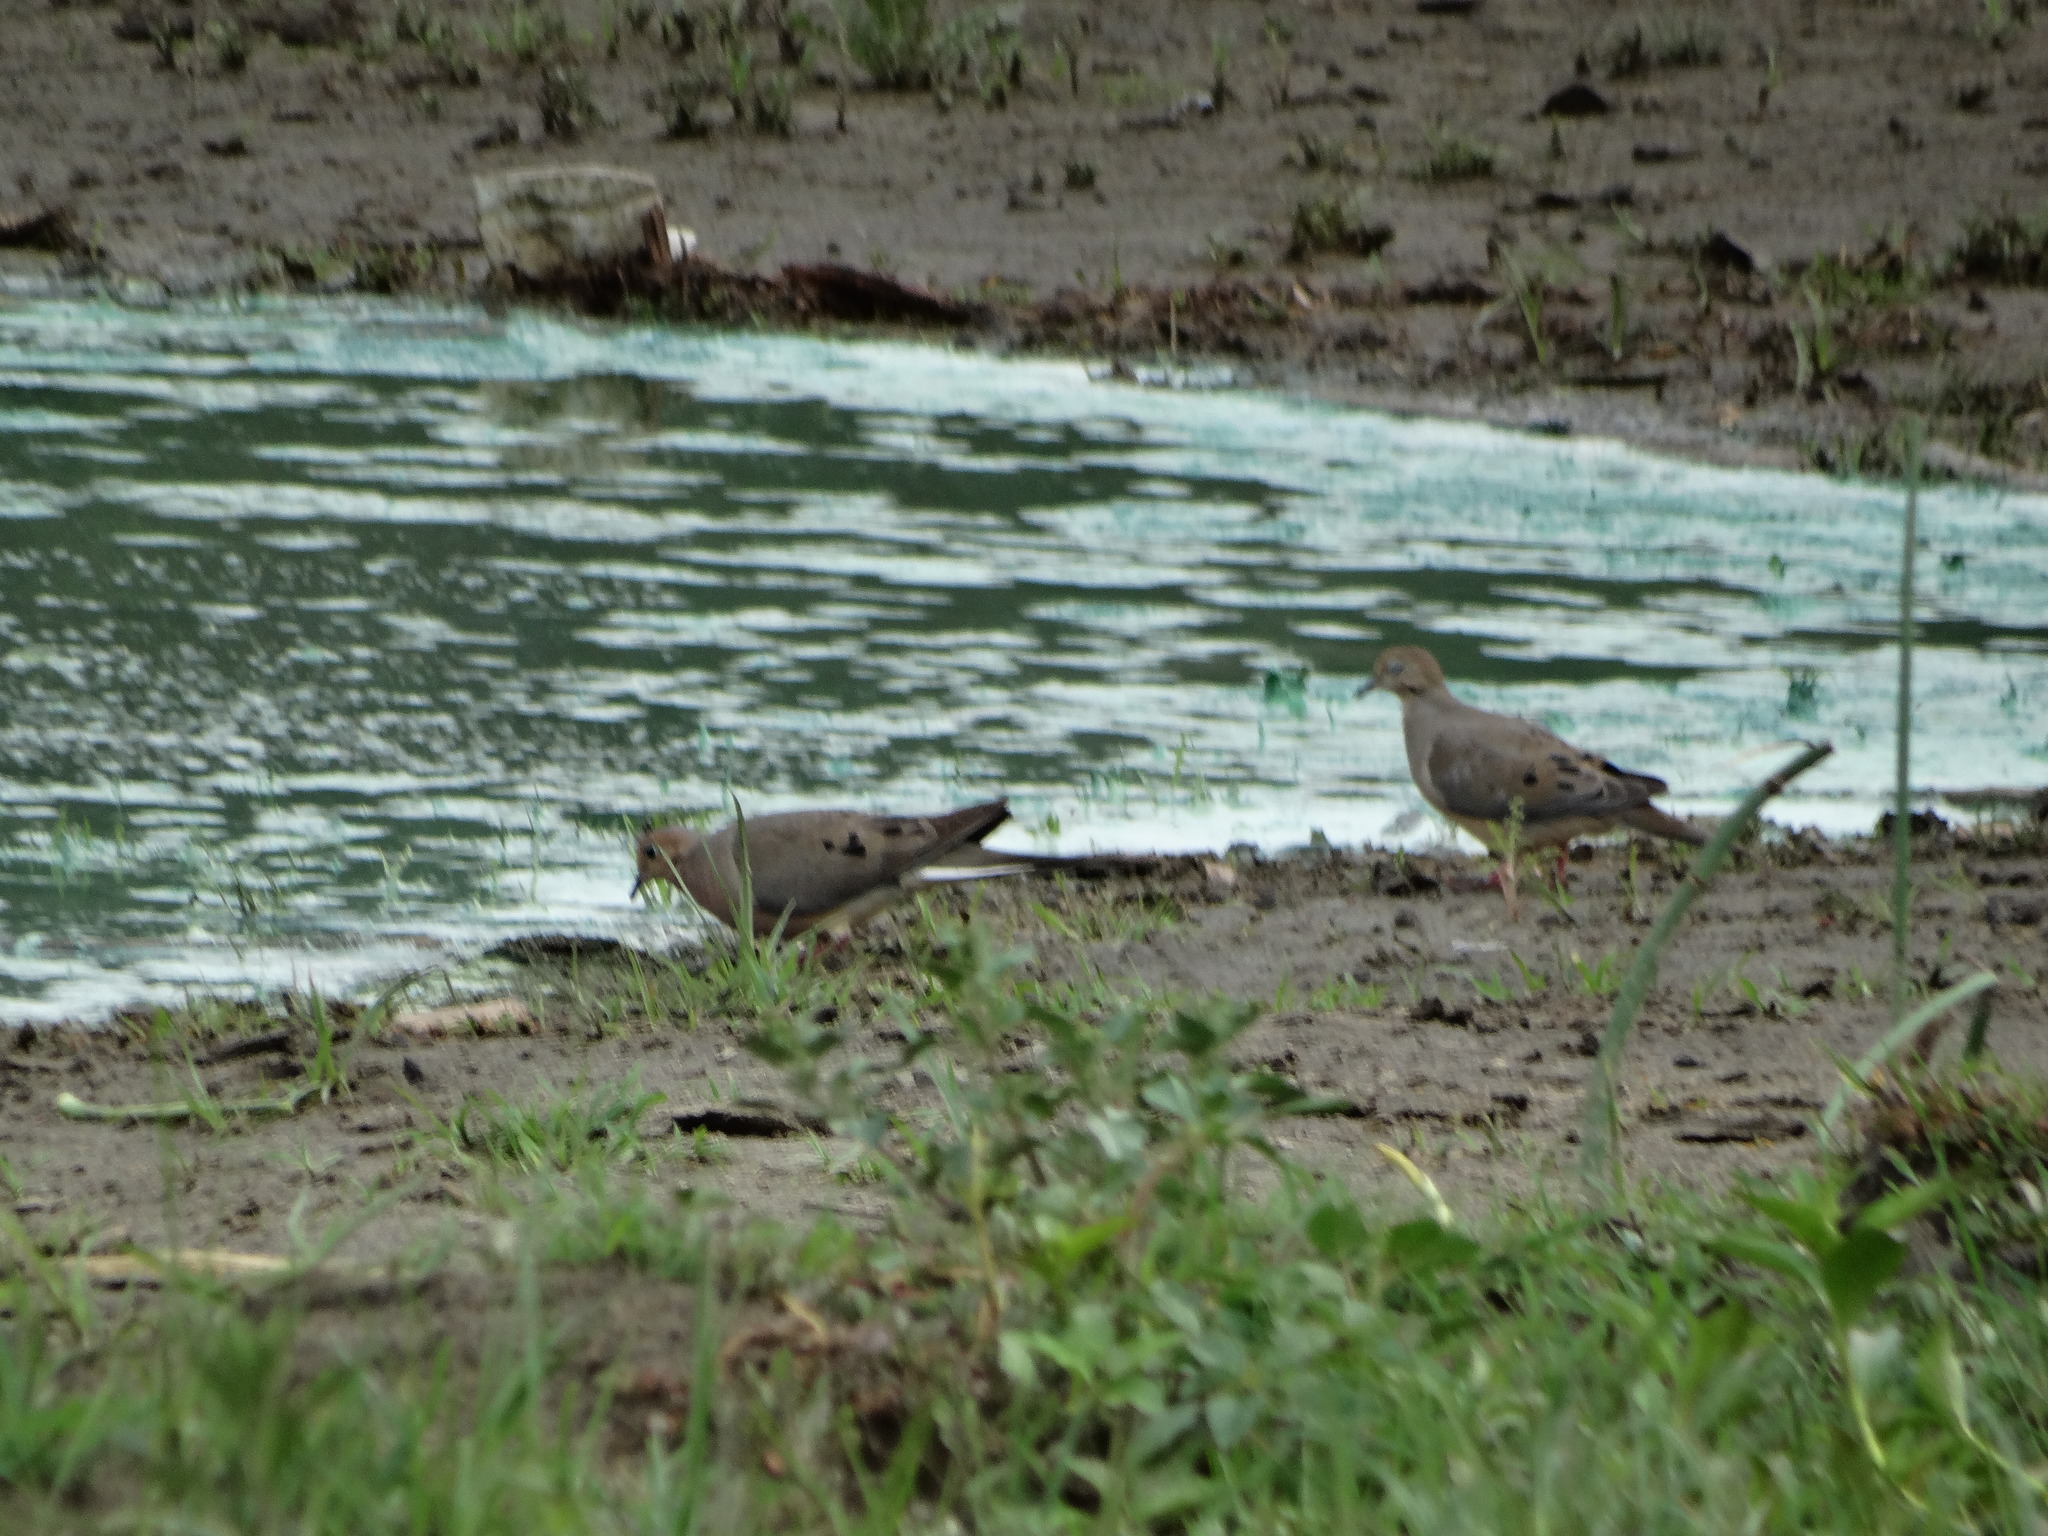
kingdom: Animalia
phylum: Chordata
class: Aves
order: Columbiformes
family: Columbidae
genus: Zenaida
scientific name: Zenaida macroura
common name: Mourning dove
